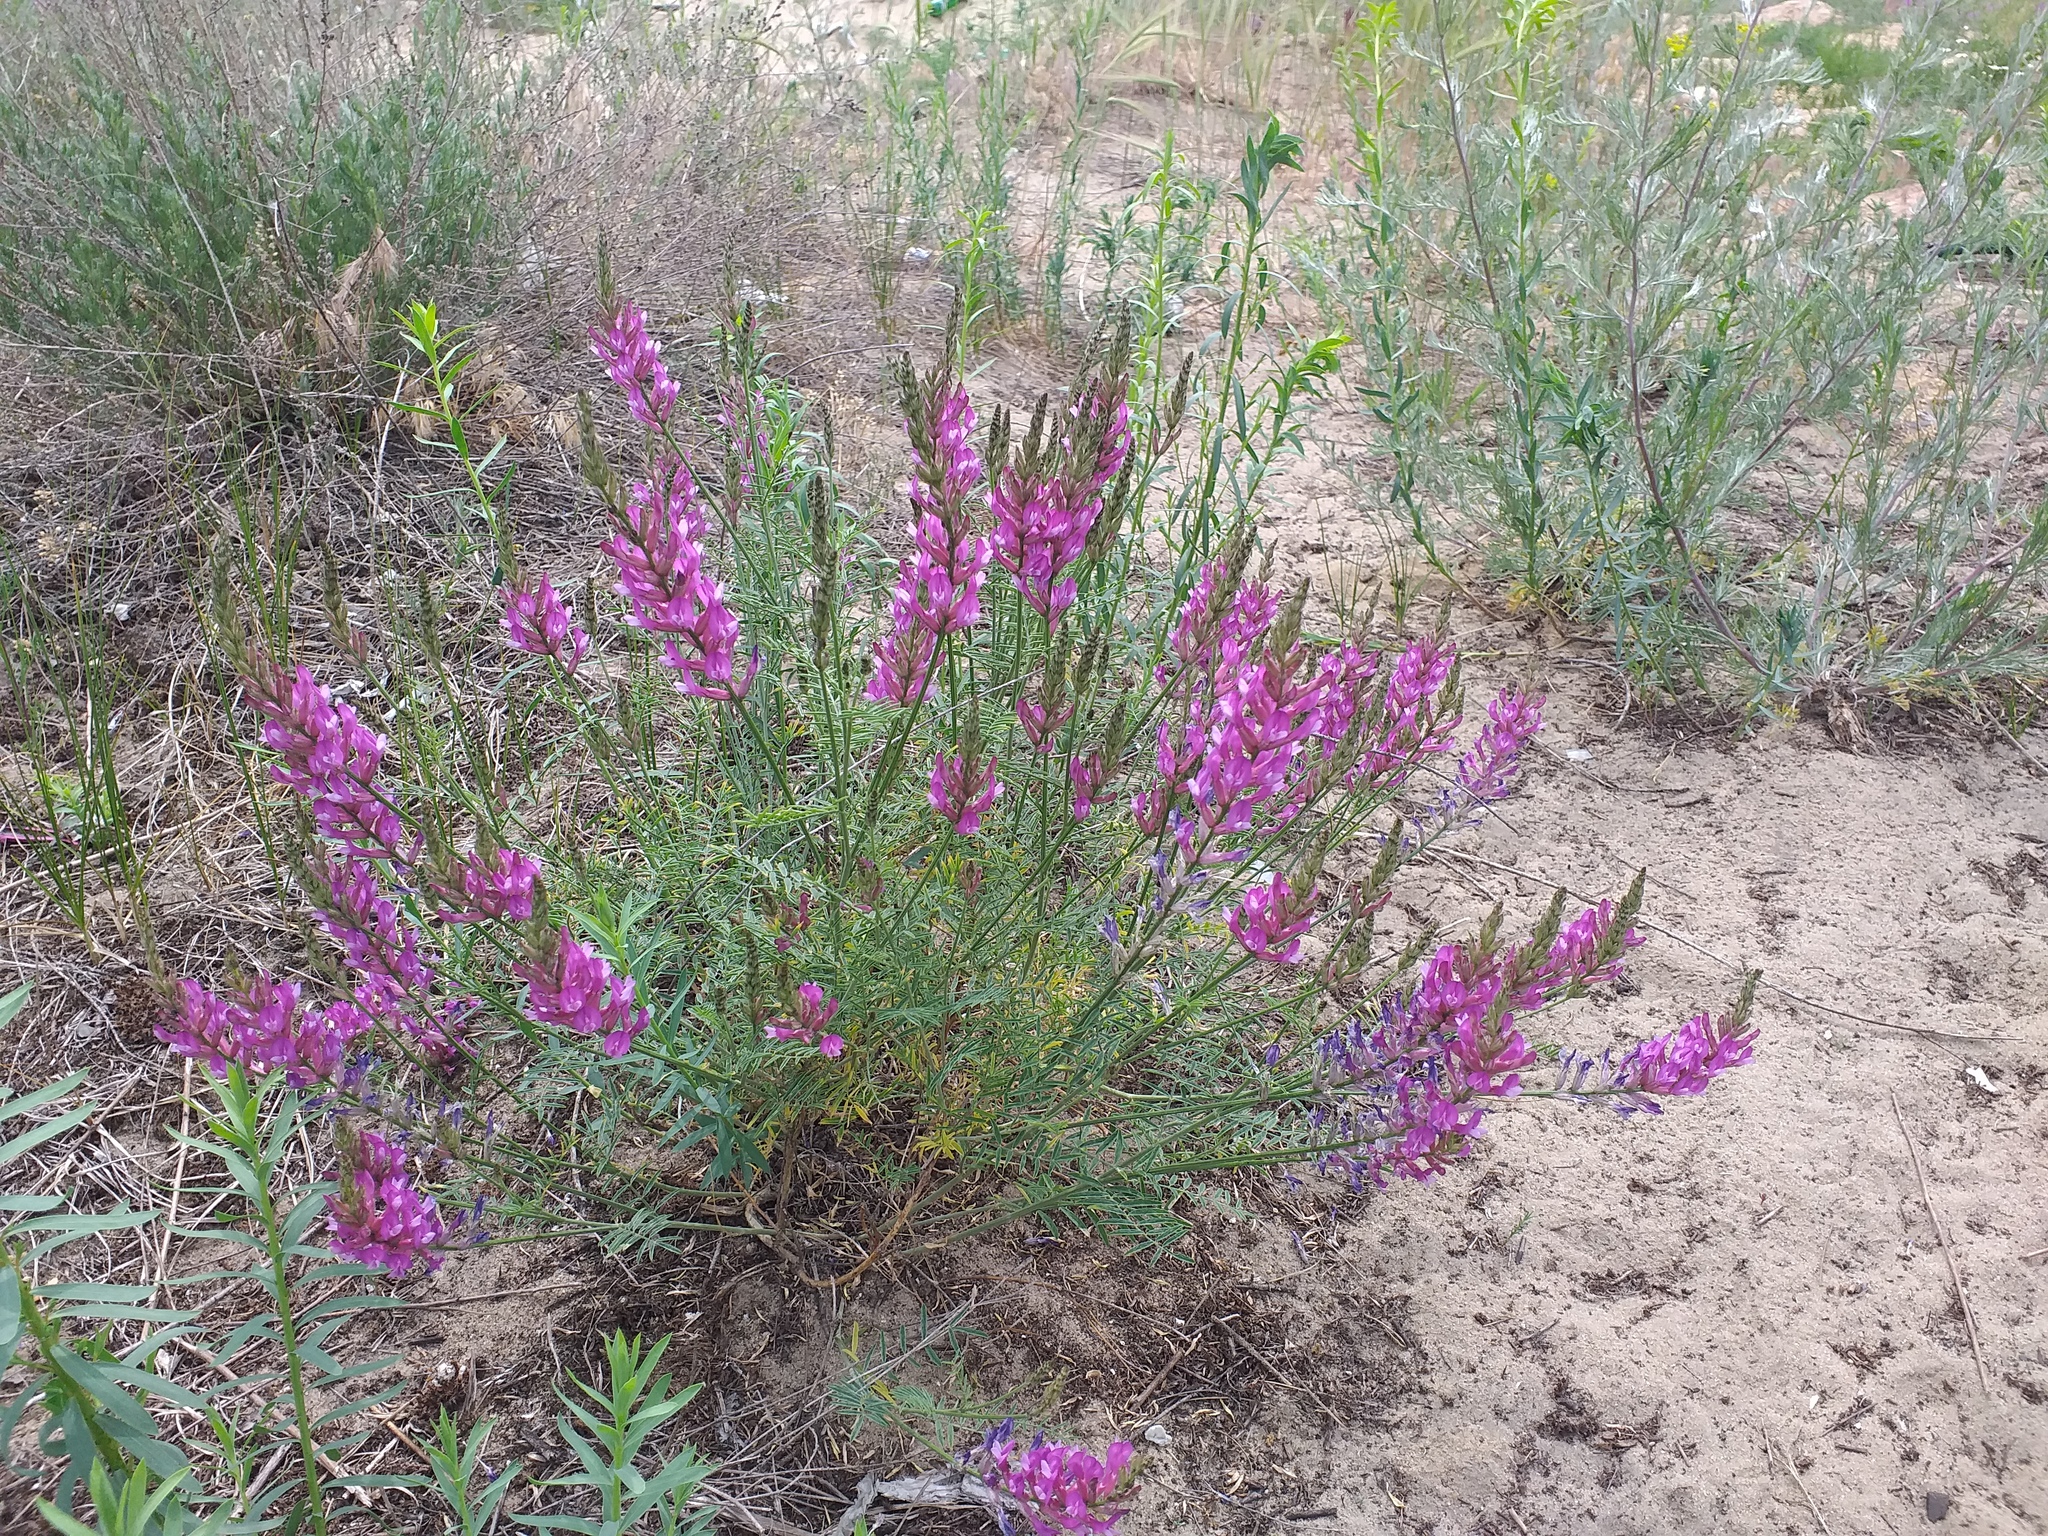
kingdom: Plantae
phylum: Tracheophyta
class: Magnoliopsida
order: Fabales
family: Fabaceae
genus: Astragalus
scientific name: Astragalus varius
